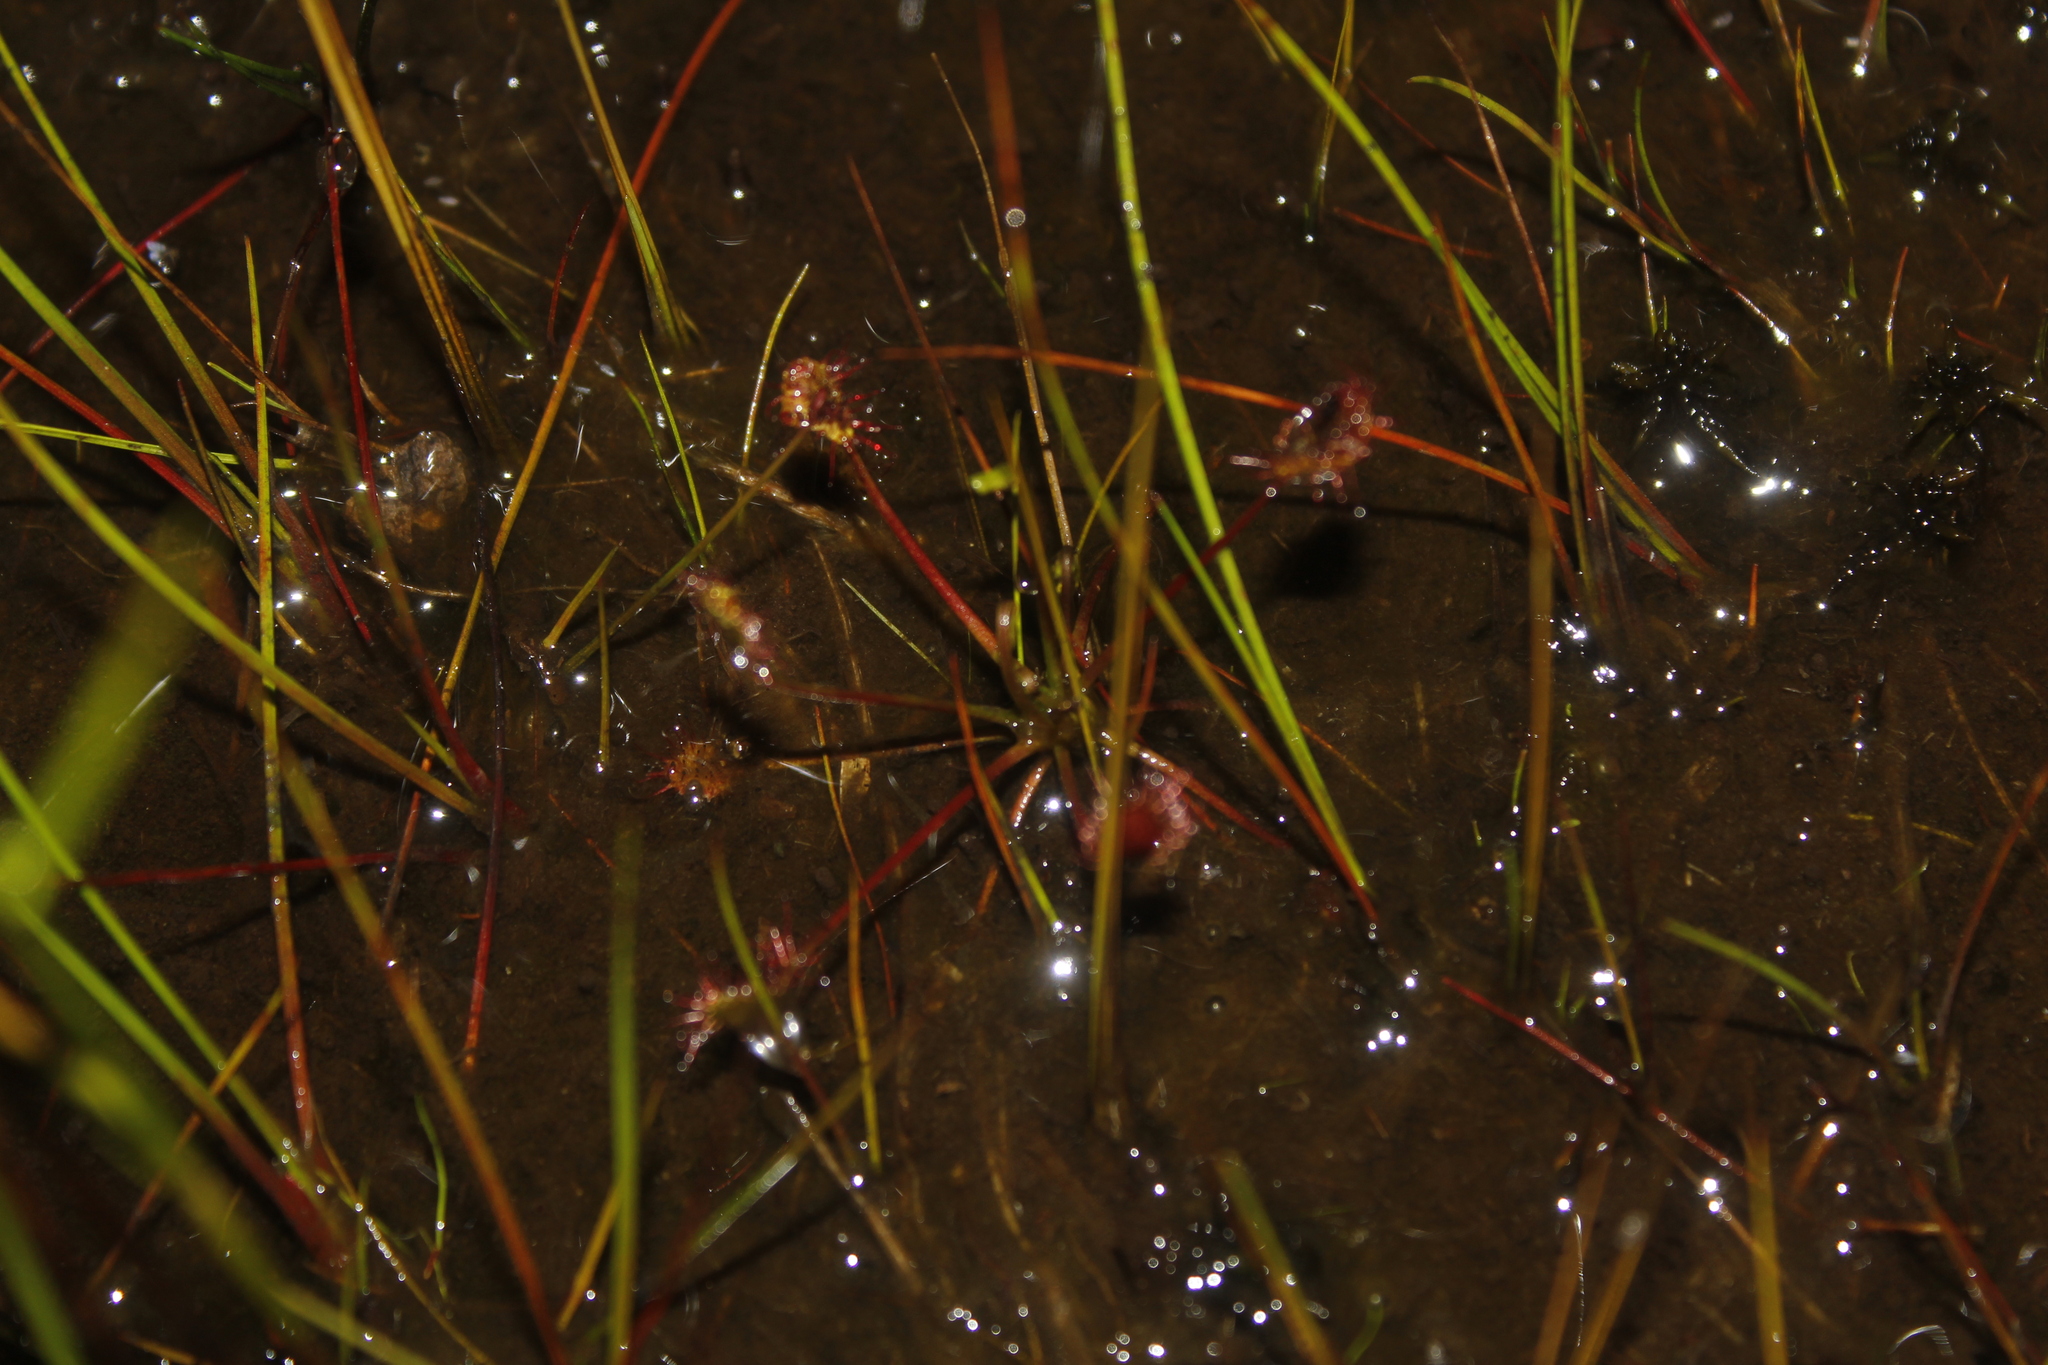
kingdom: Plantae
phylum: Tracheophyta
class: Magnoliopsida
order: Caryophyllales
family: Droseraceae
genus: Drosera
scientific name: Drosera intermedia
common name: Oblong-leaved sundew
